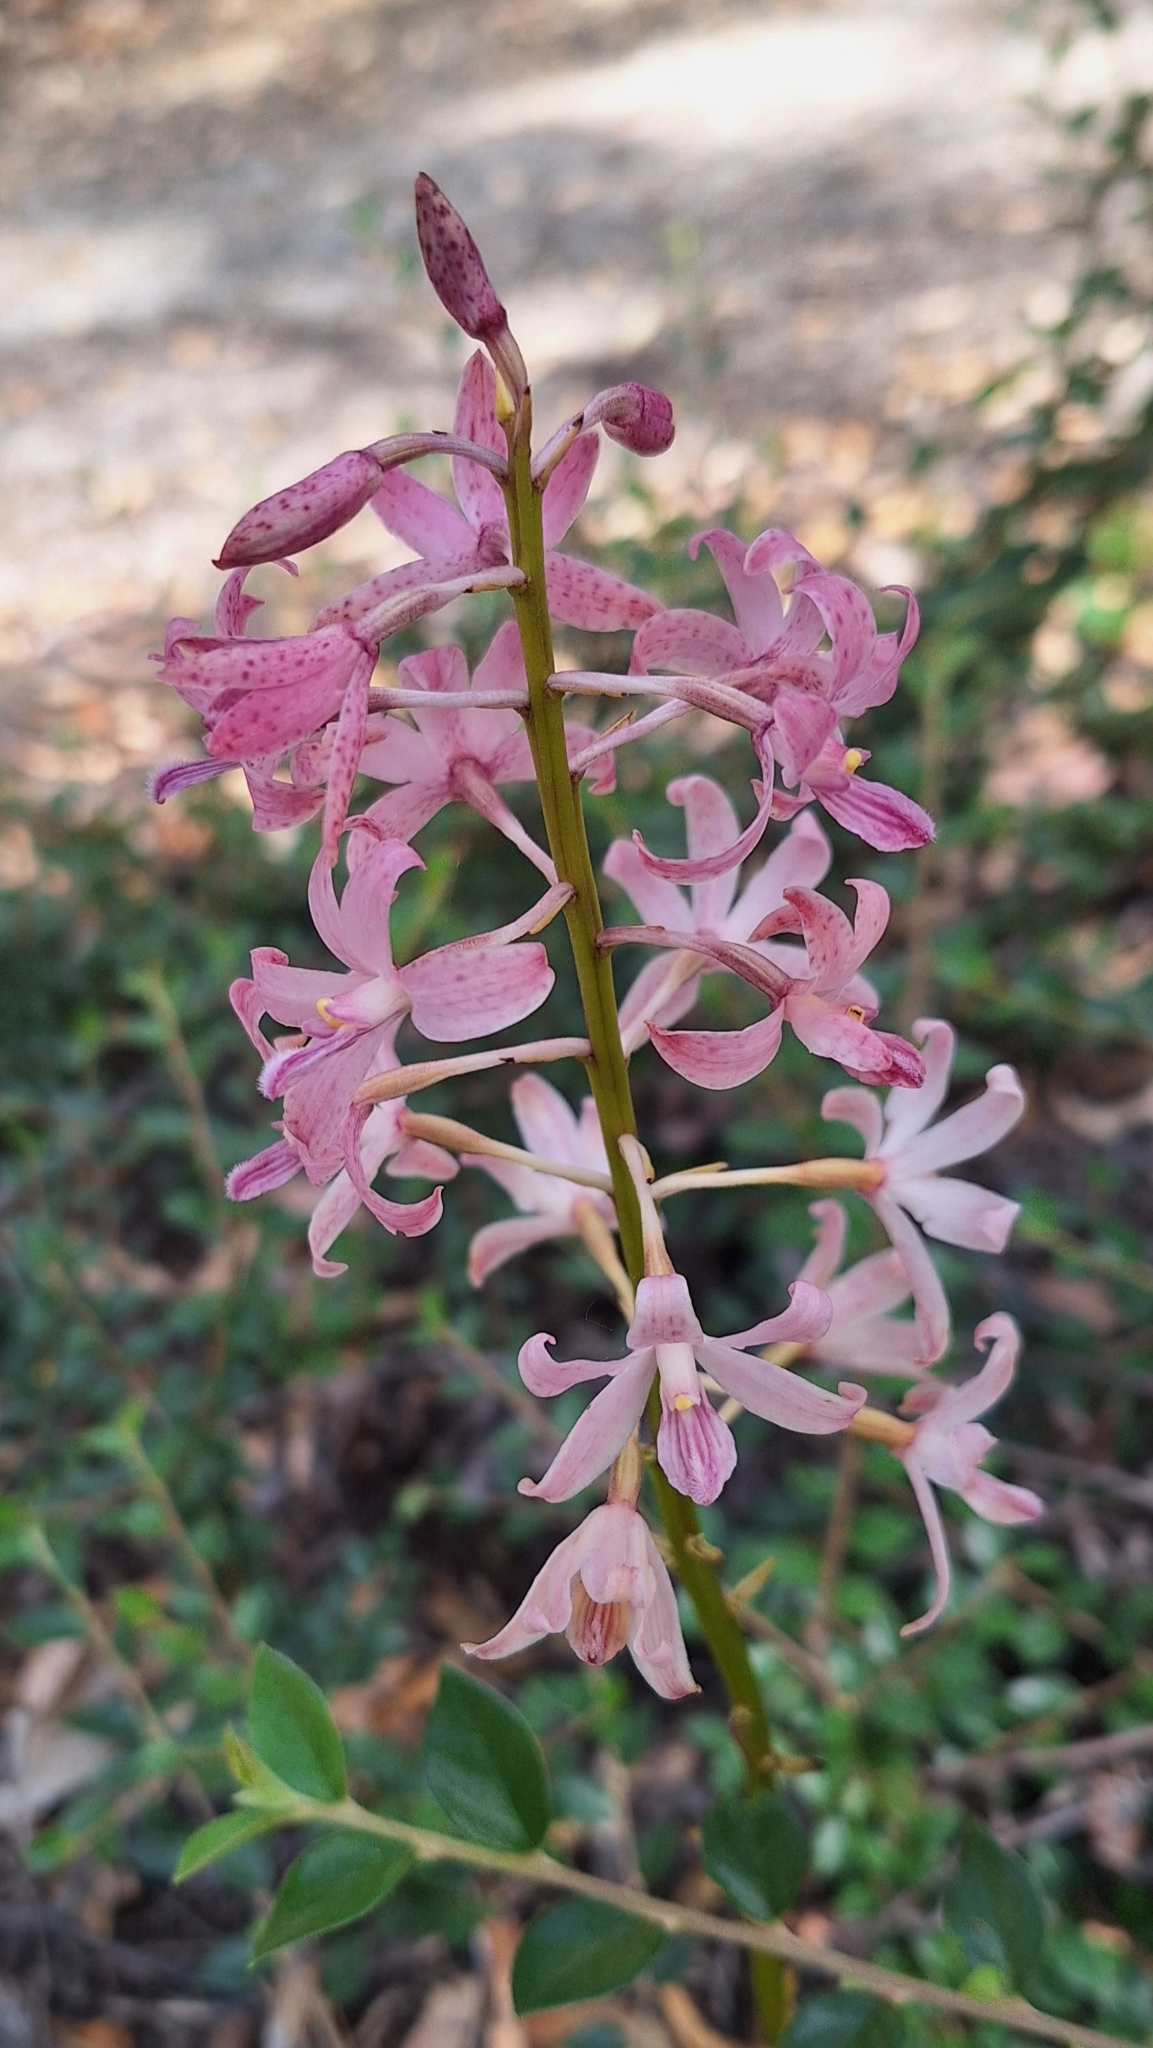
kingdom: Plantae
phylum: Tracheophyta
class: Liliopsida
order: Asparagales
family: Orchidaceae
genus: Dipodium
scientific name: Dipodium roseum
